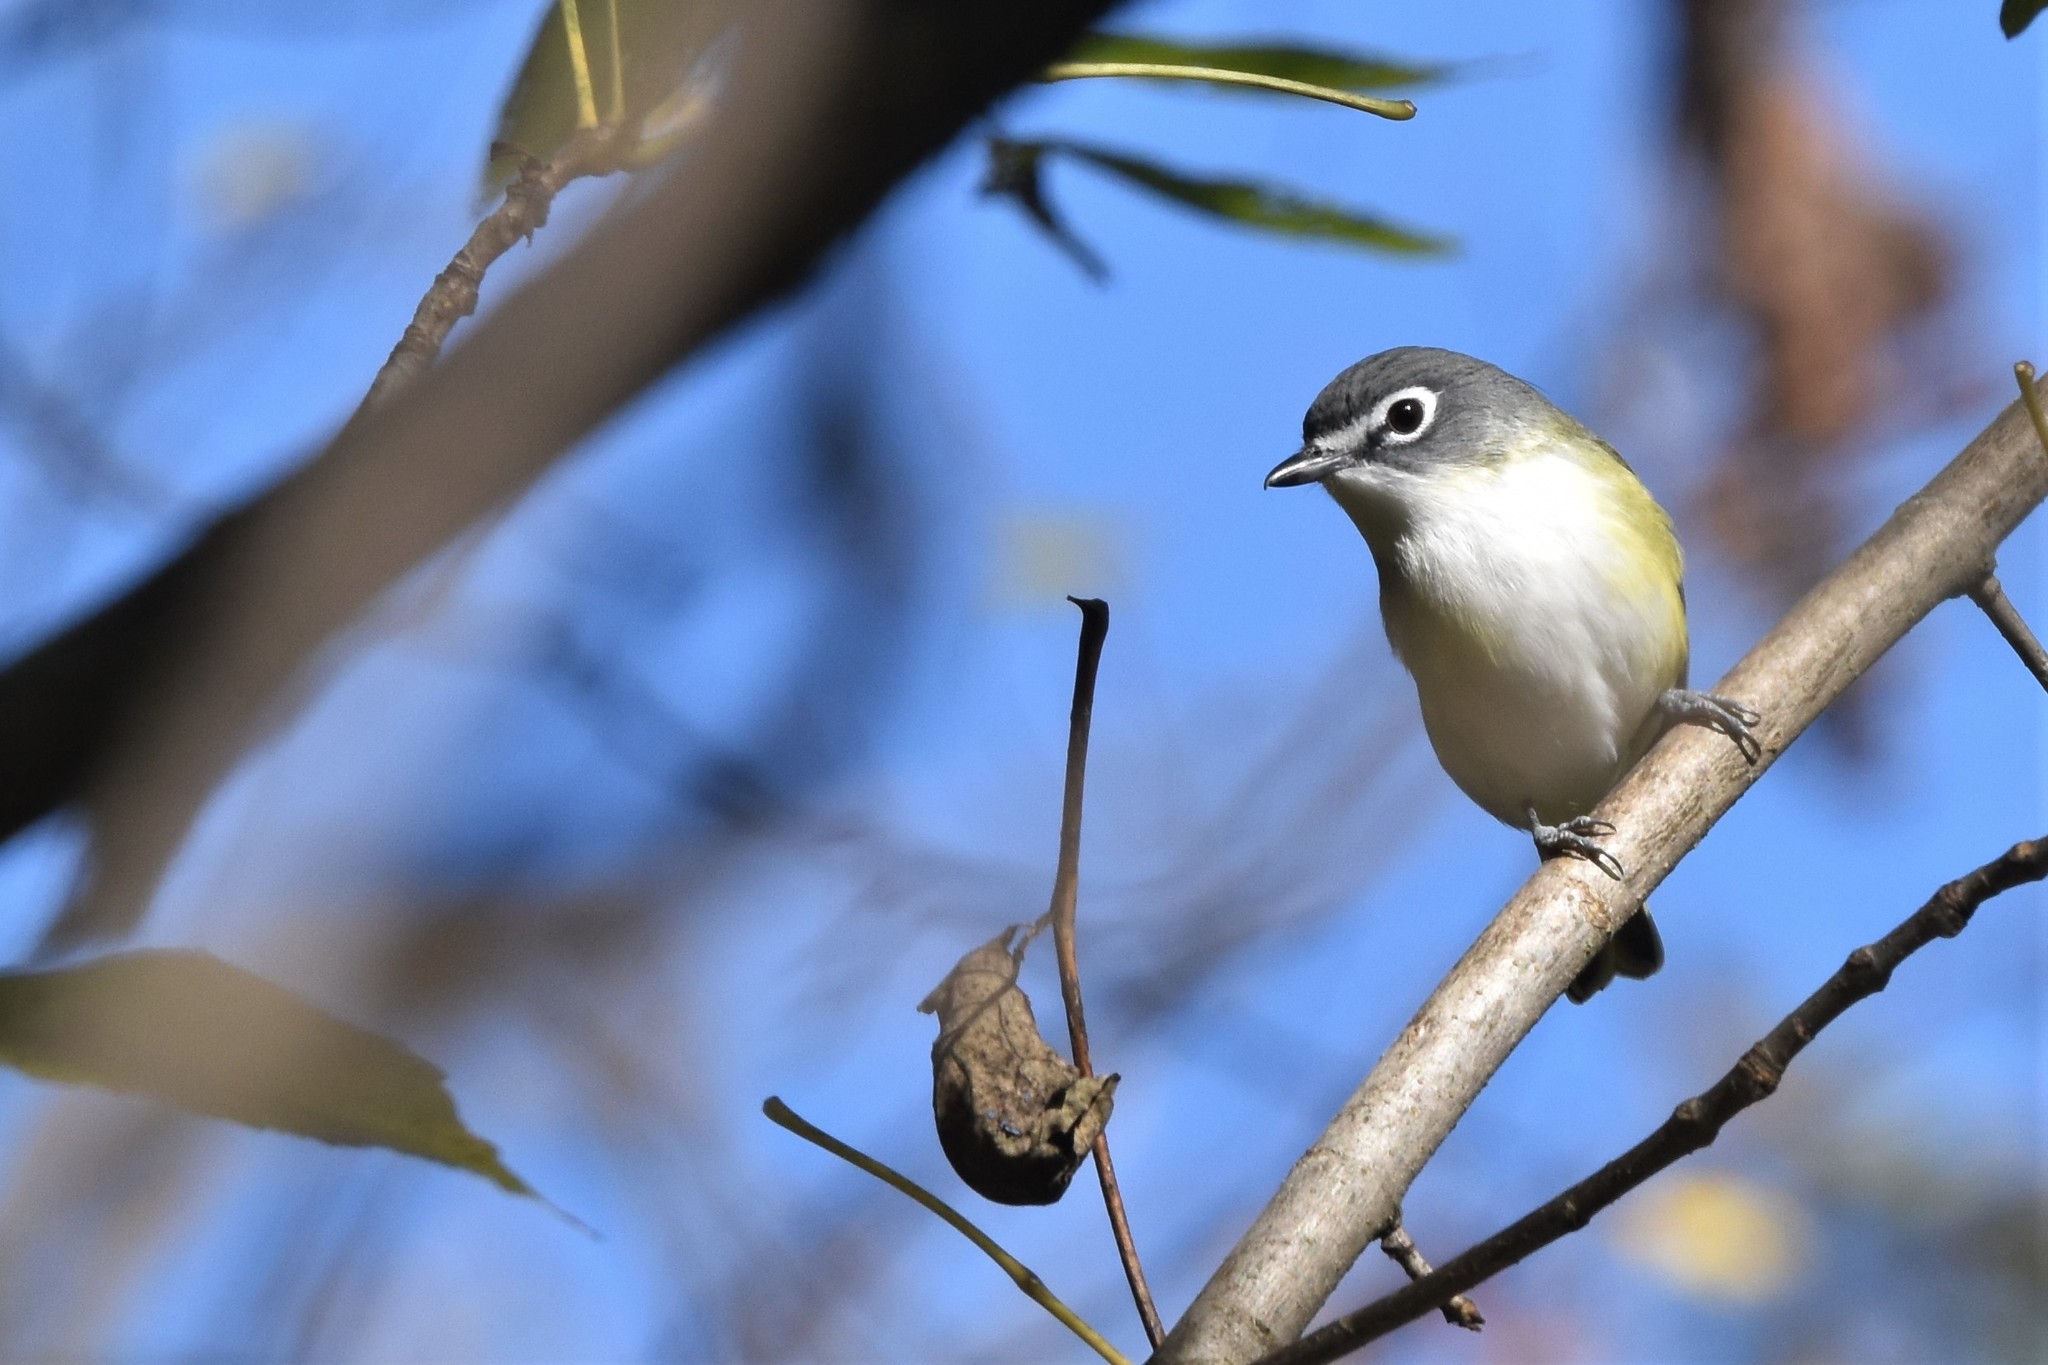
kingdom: Animalia
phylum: Chordata
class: Aves
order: Passeriformes
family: Vireonidae
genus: Vireo
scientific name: Vireo solitarius
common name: Blue-headed vireo
